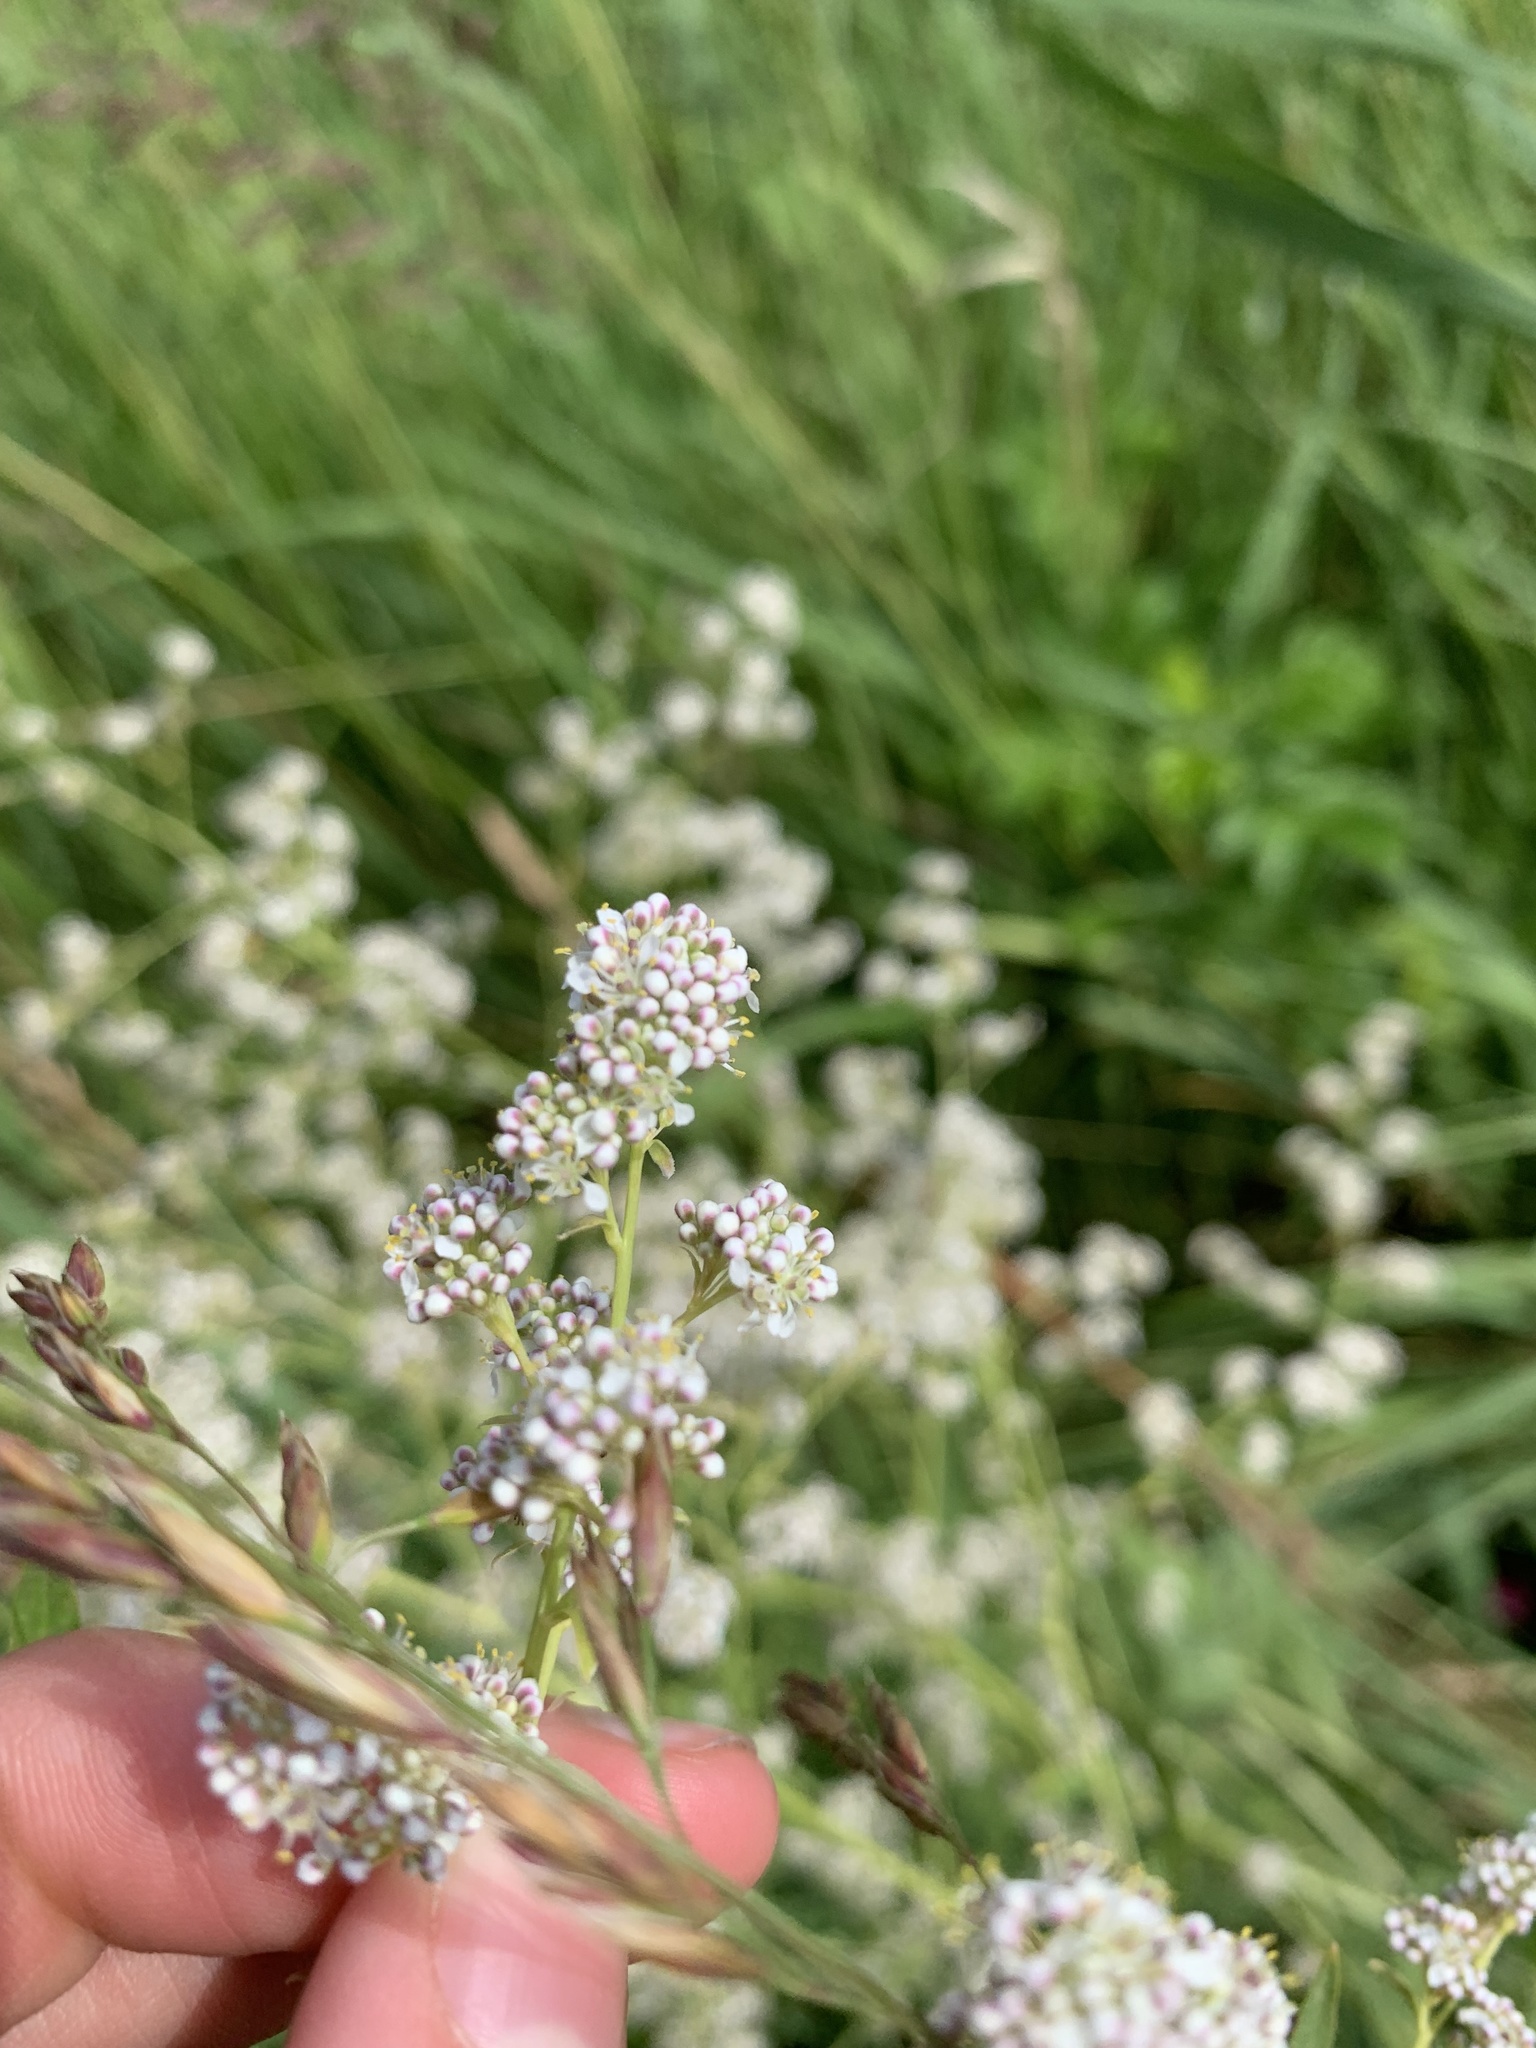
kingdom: Plantae
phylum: Tracheophyta
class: Magnoliopsida
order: Brassicales
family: Brassicaceae
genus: Lepidium
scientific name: Lepidium latifolium
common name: Dittander
